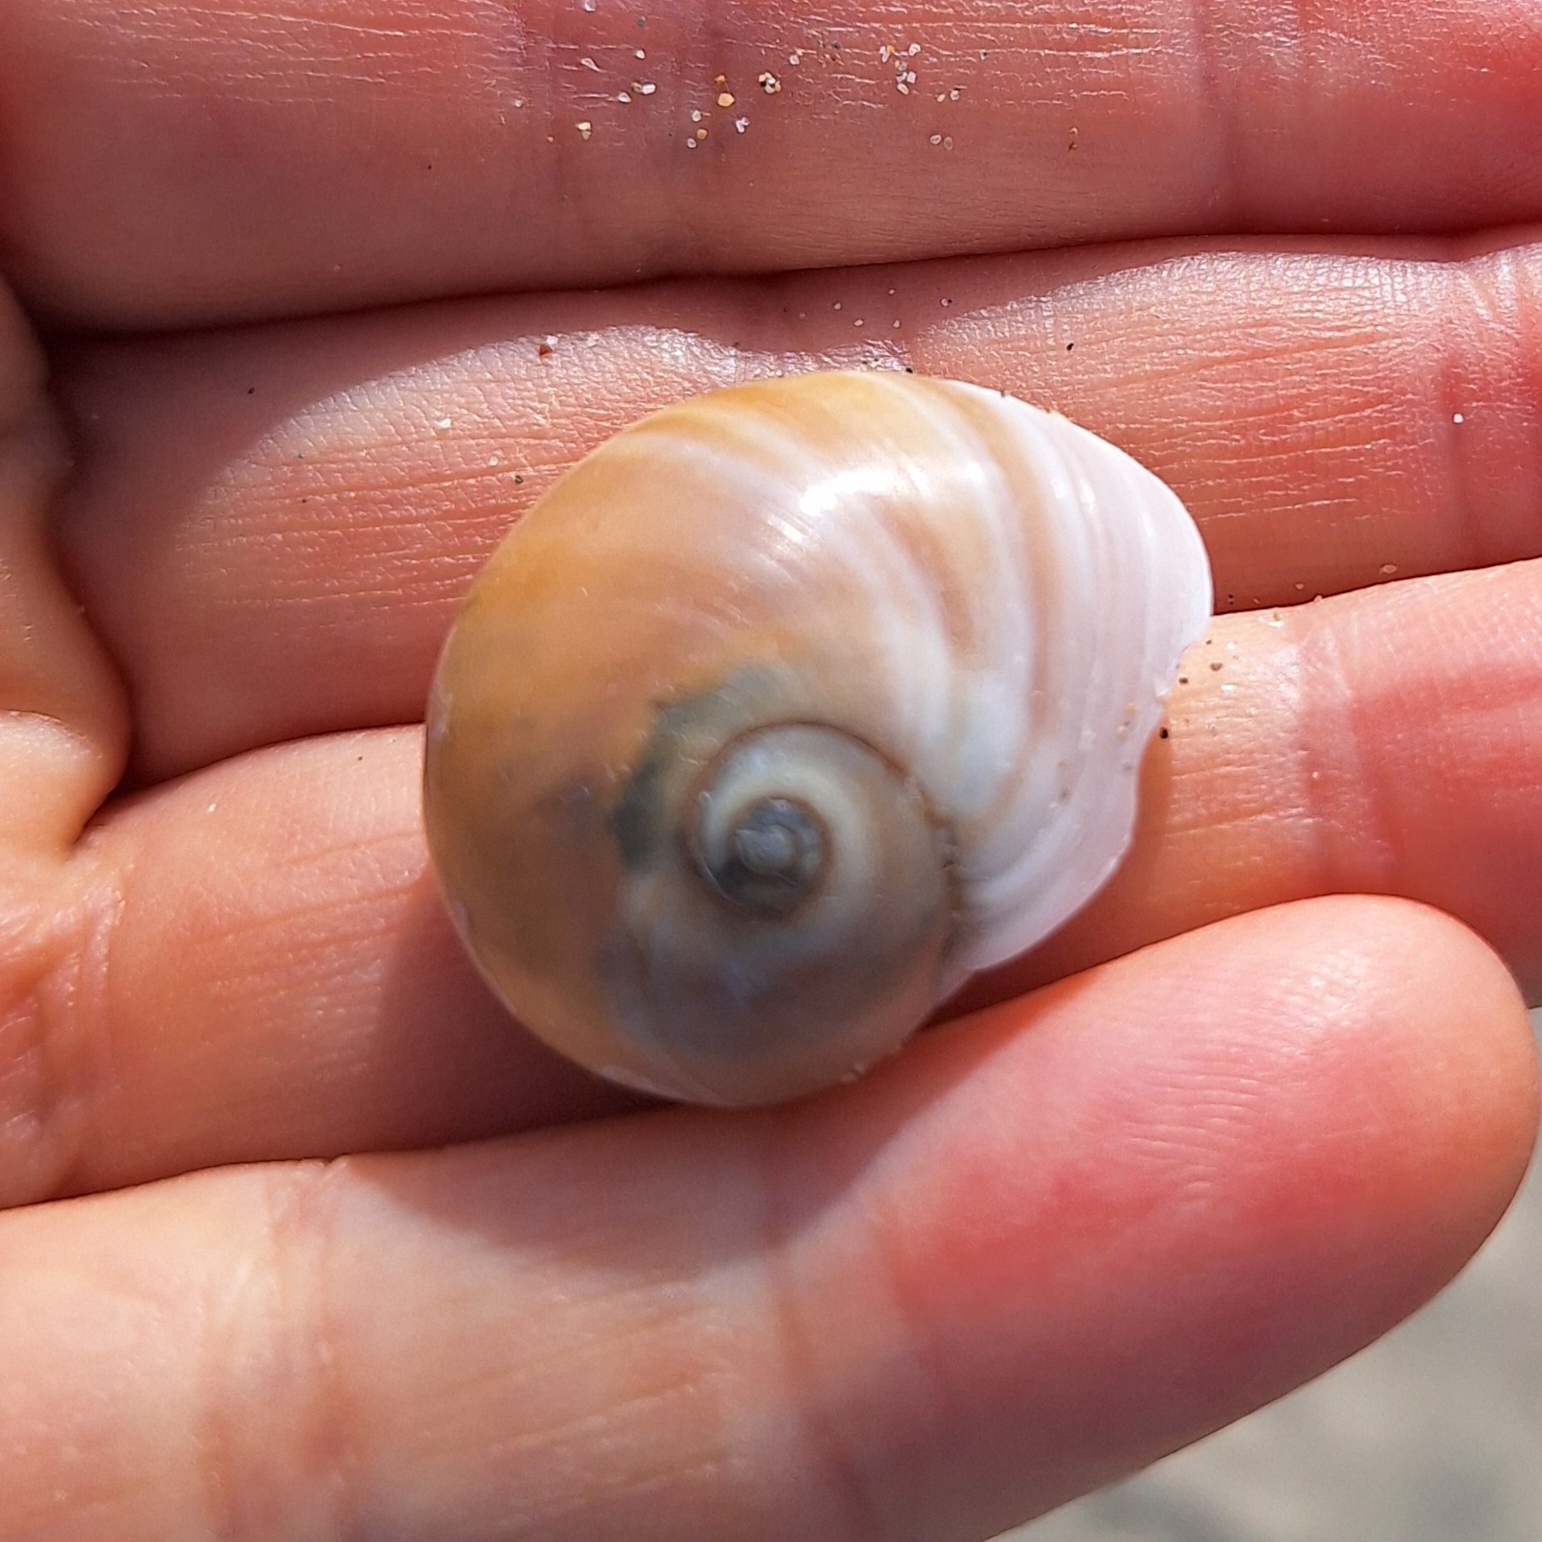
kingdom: Animalia
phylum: Mollusca
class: Gastropoda
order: Littorinimorpha
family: Naticidae
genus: Neverita
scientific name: Neverita josephinia
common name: Josephine's moonsnail
